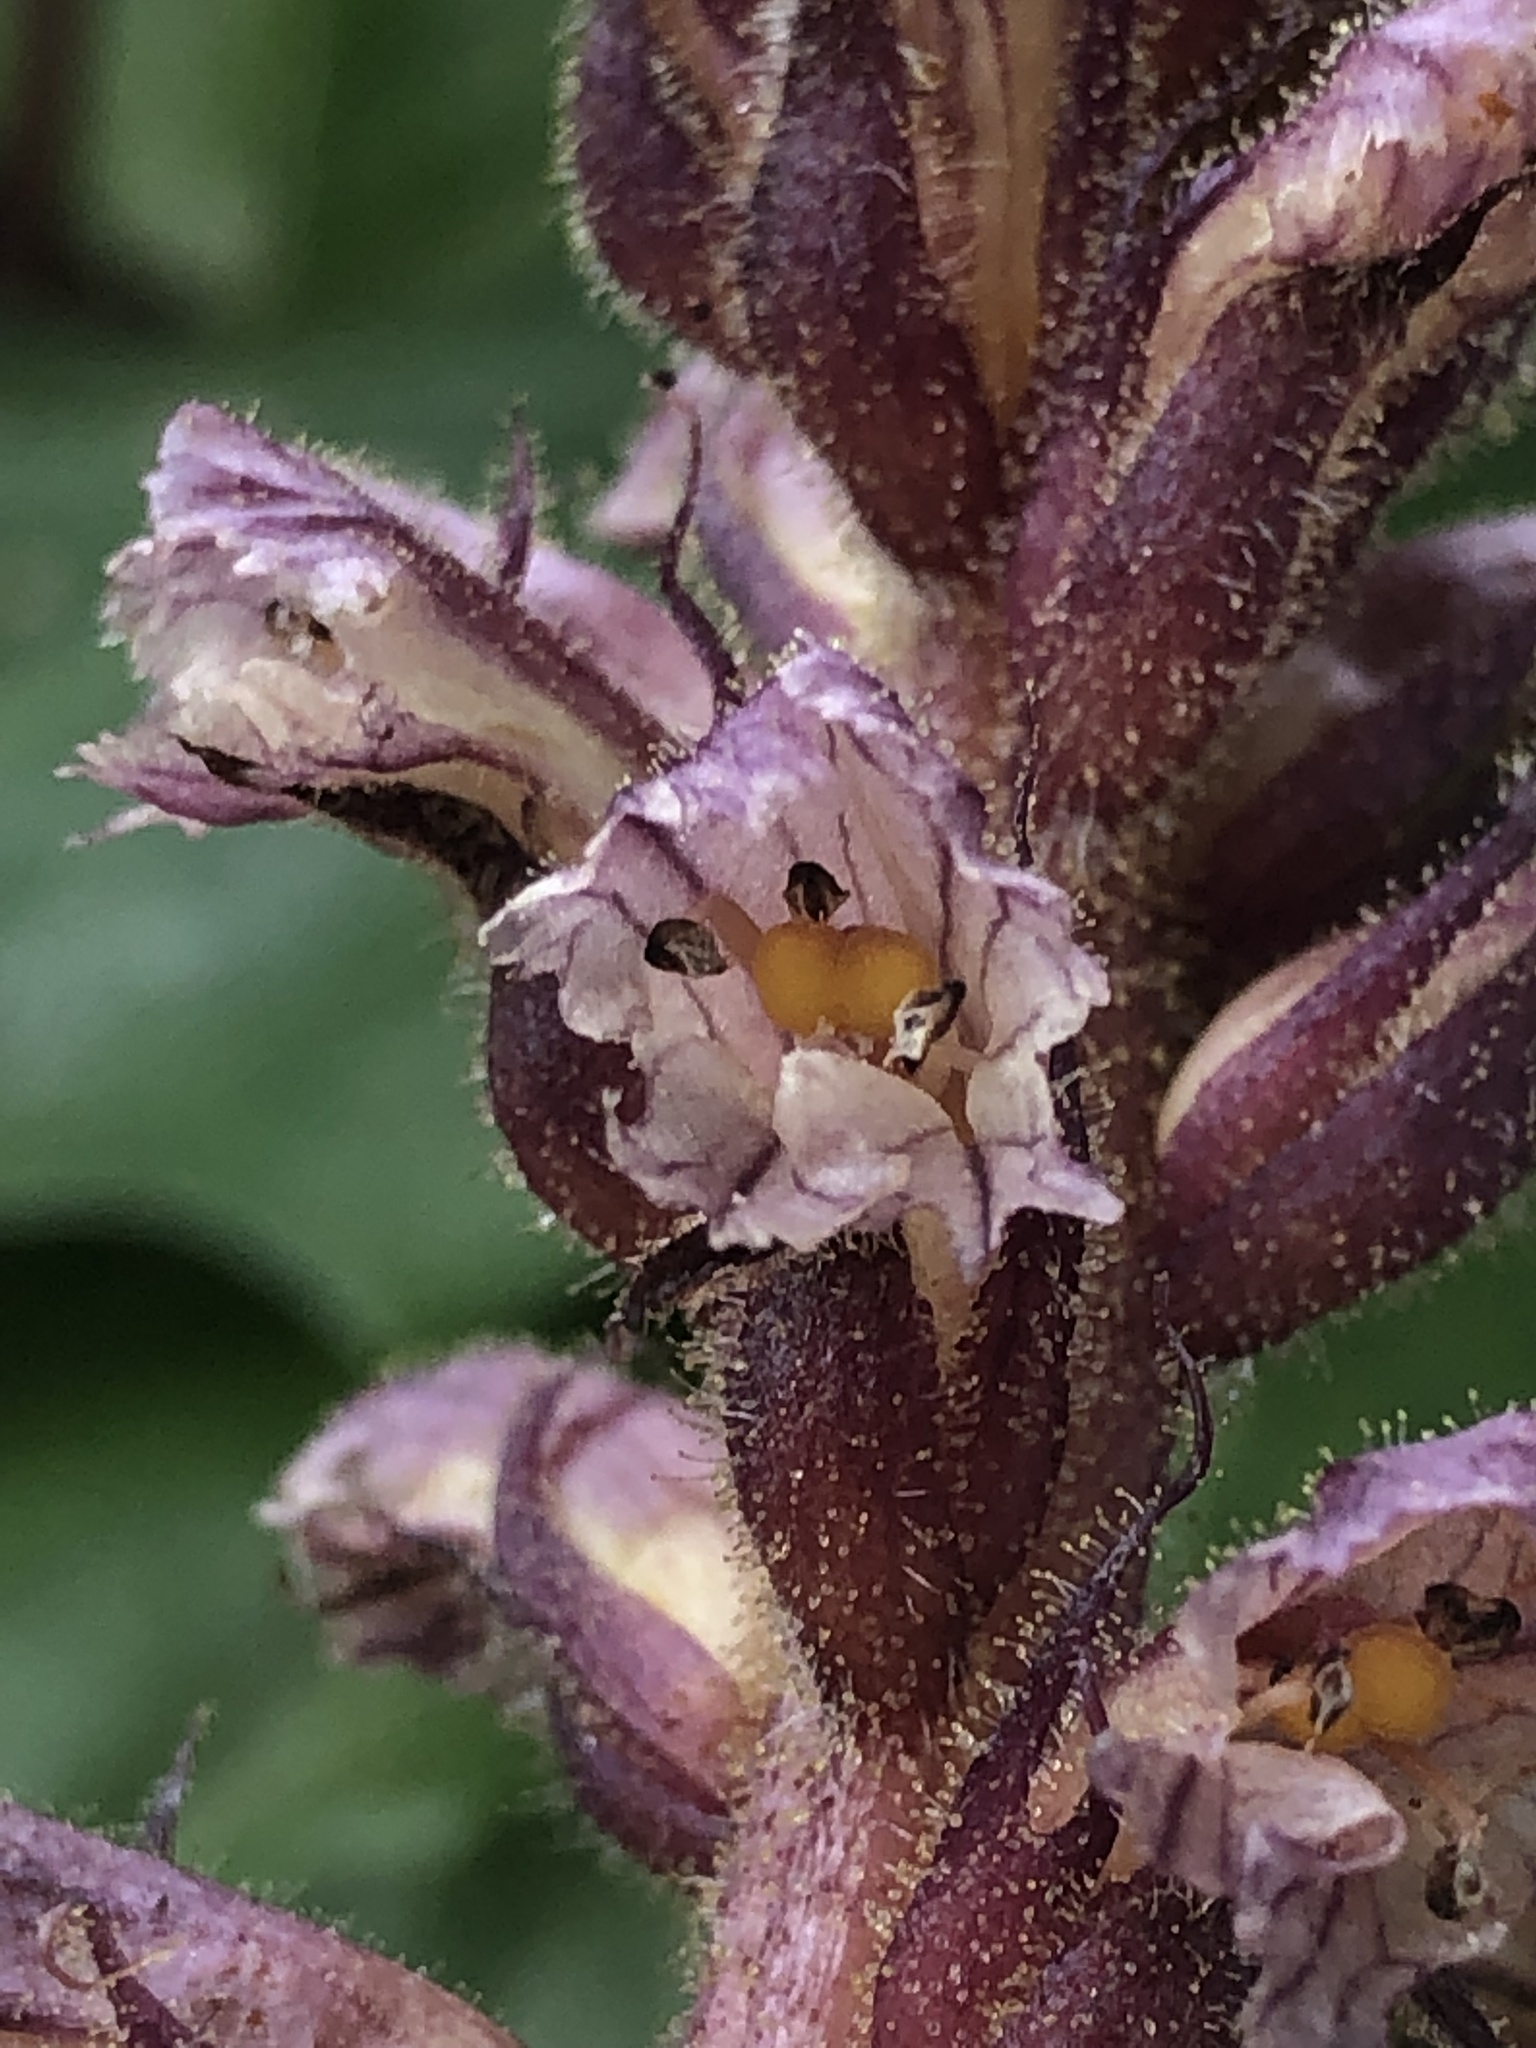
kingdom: Plantae
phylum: Tracheophyta
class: Magnoliopsida
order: Lamiales
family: Orobanchaceae
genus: Orobanche
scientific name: Orobanche hederae
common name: Ivy broomrape
